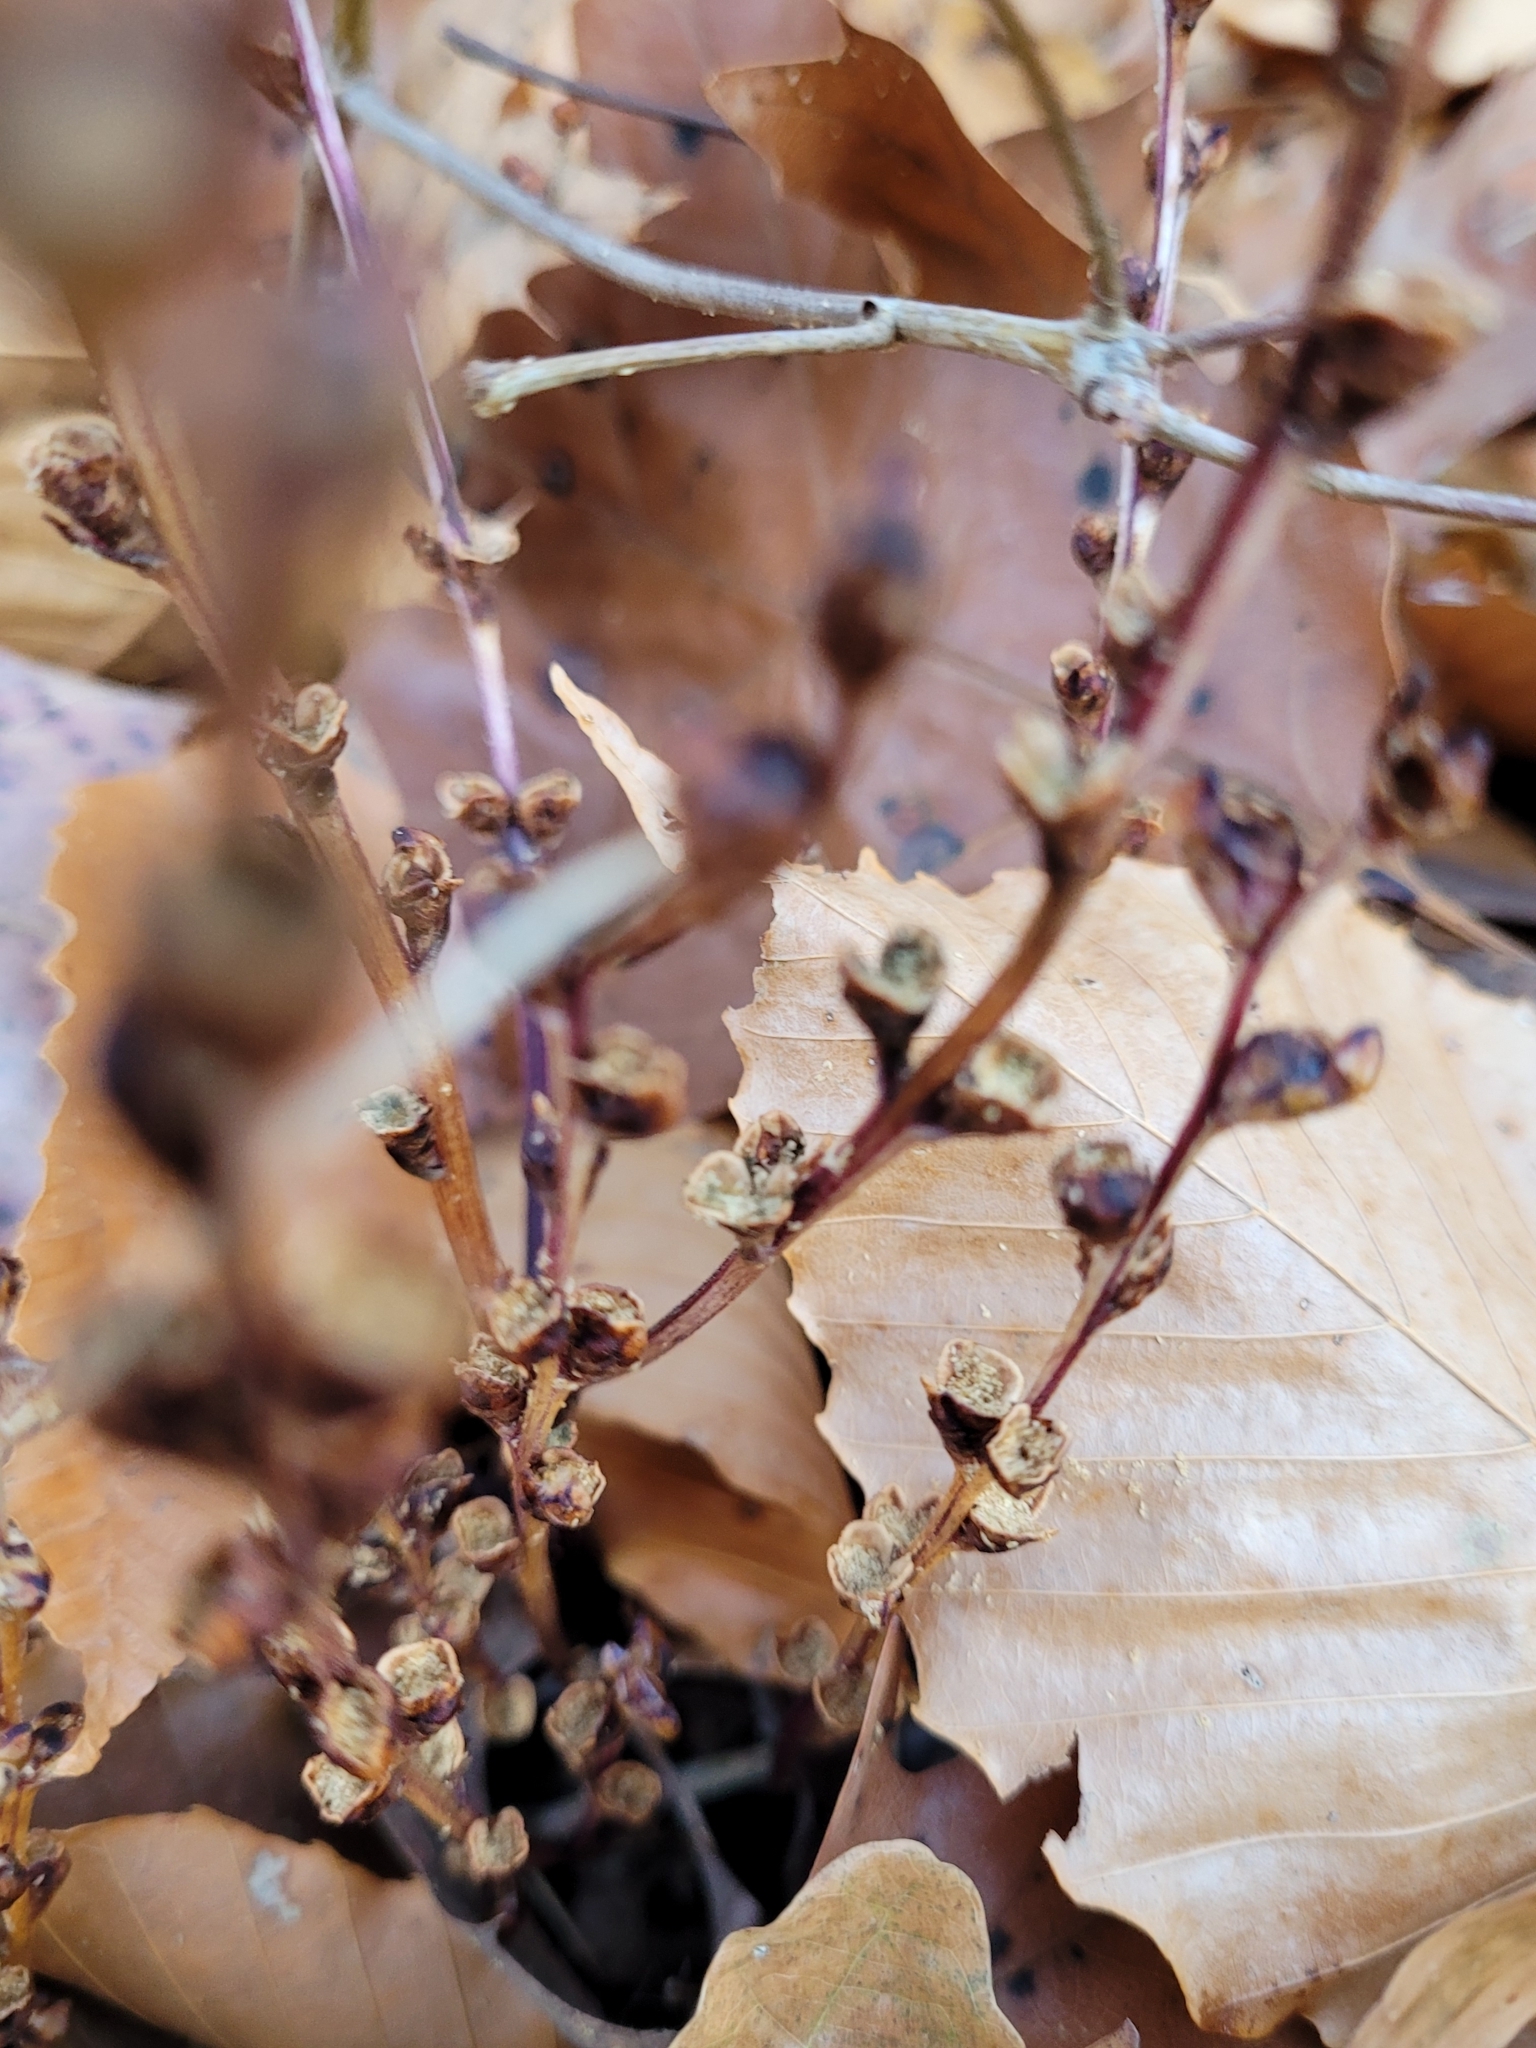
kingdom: Plantae
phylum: Tracheophyta
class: Magnoliopsida
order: Lamiales
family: Orobanchaceae
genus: Epifagus
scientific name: Epifagus virginiana
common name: Beechdrops
